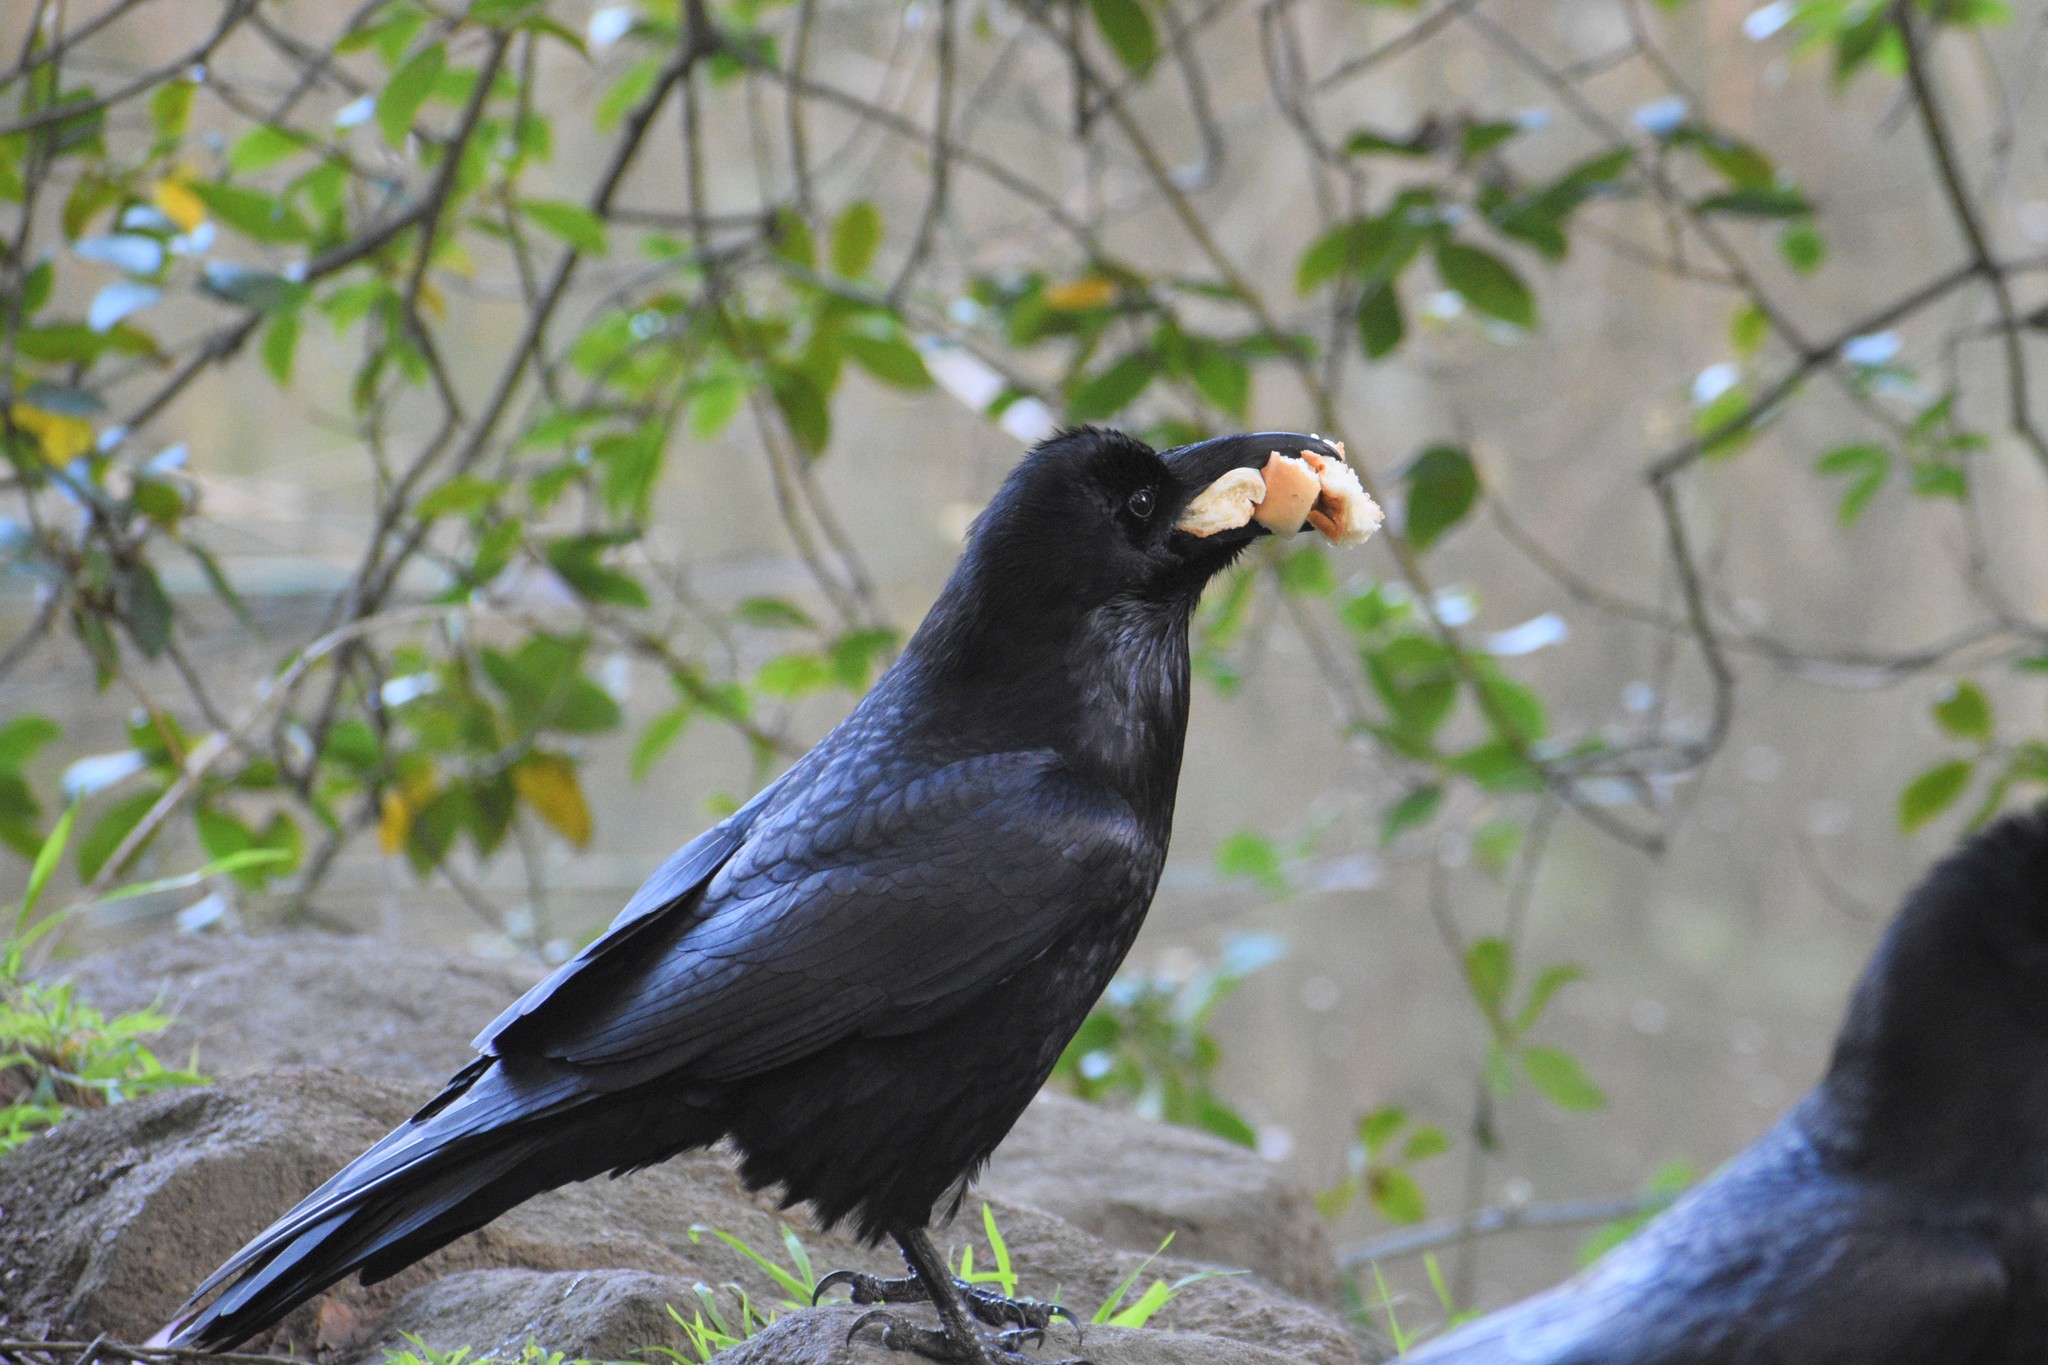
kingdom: Animalia
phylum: Chordata
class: Aves
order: Passeriformes
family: Corvidae
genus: Corvus
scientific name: Corvus corax
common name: Common raven
